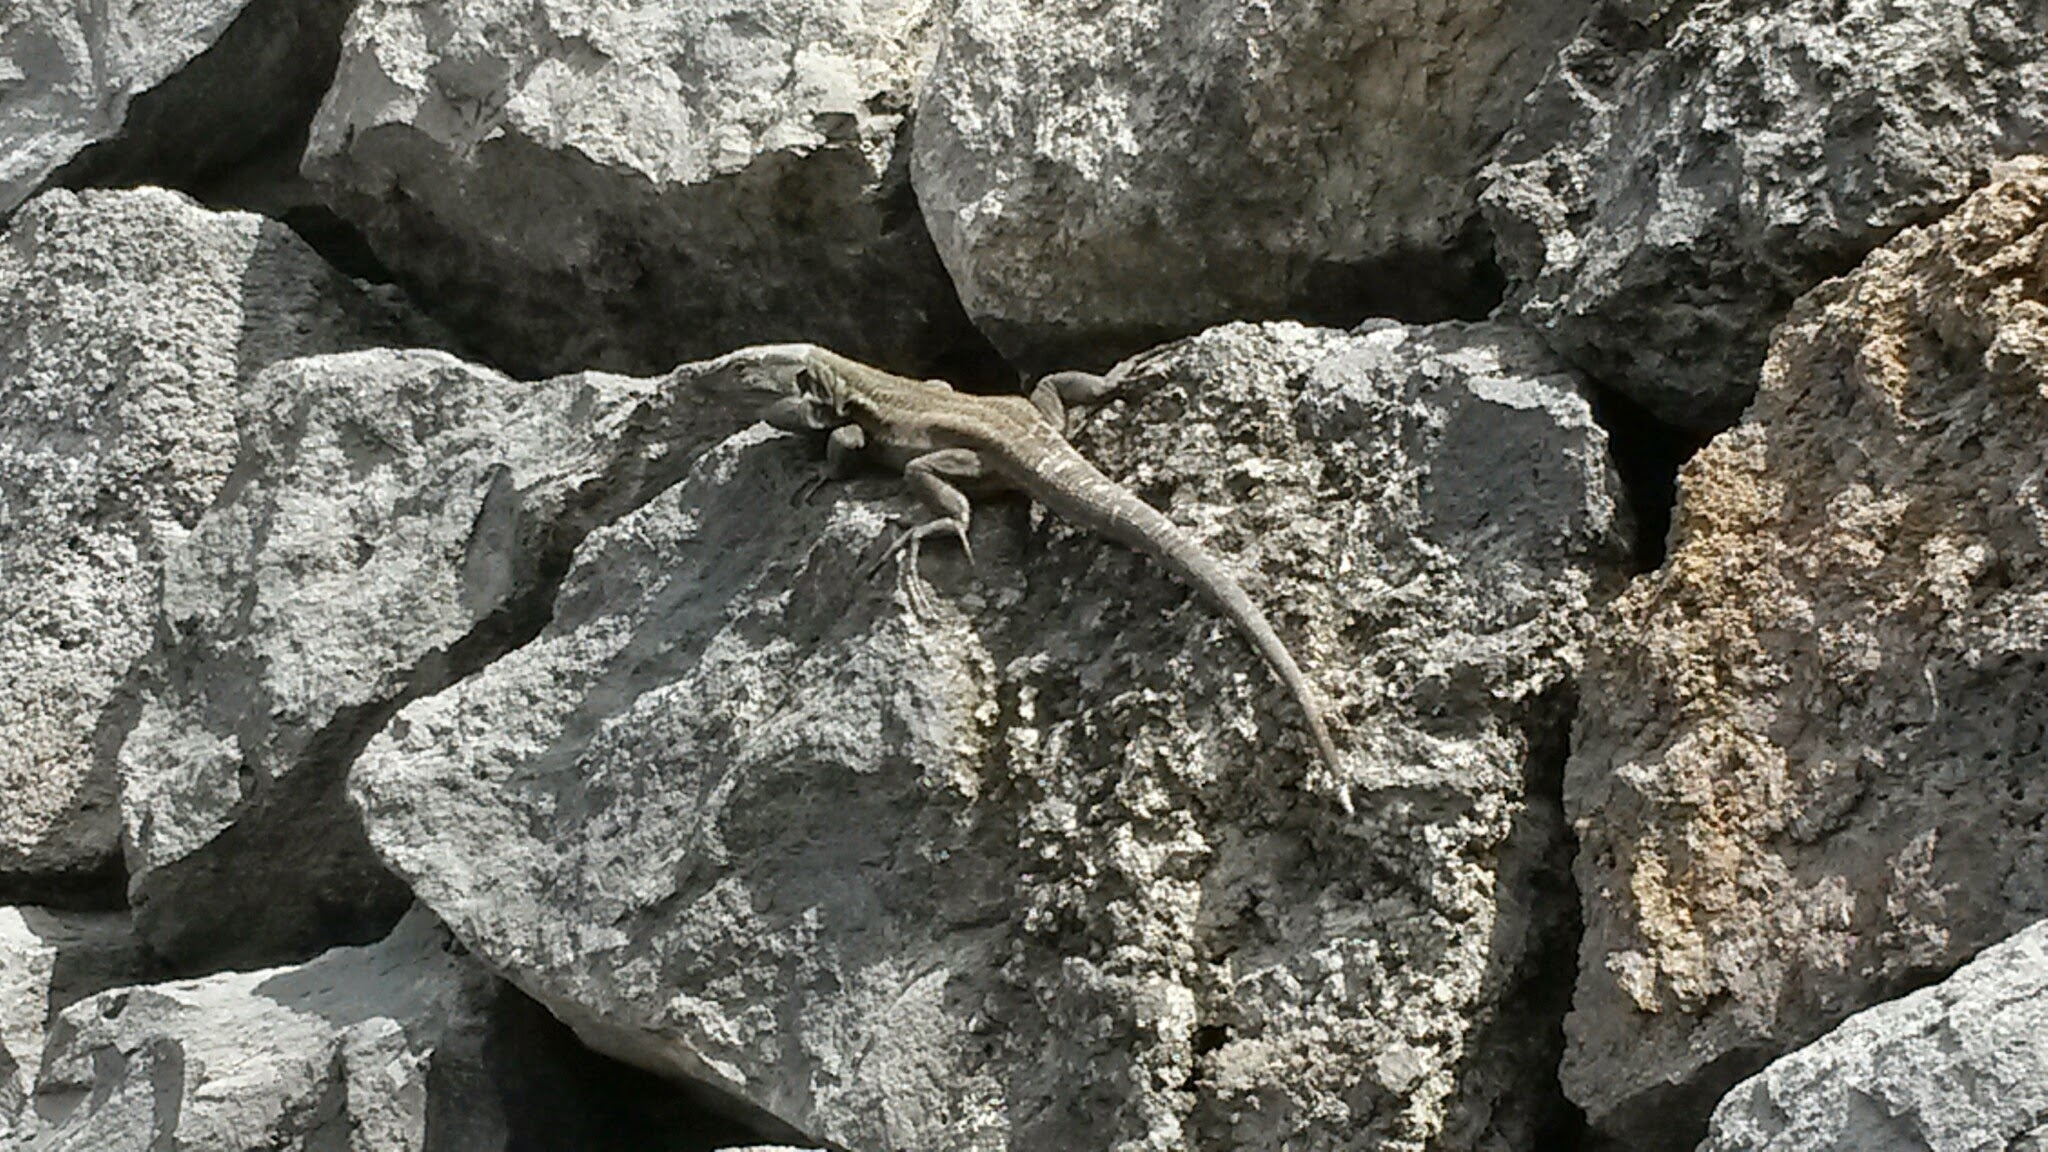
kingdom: Animalia
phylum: Chordata
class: Squamata
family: Lacertidae
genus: Gallotia
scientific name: Gallotia galloti
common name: Gallot's lizard
